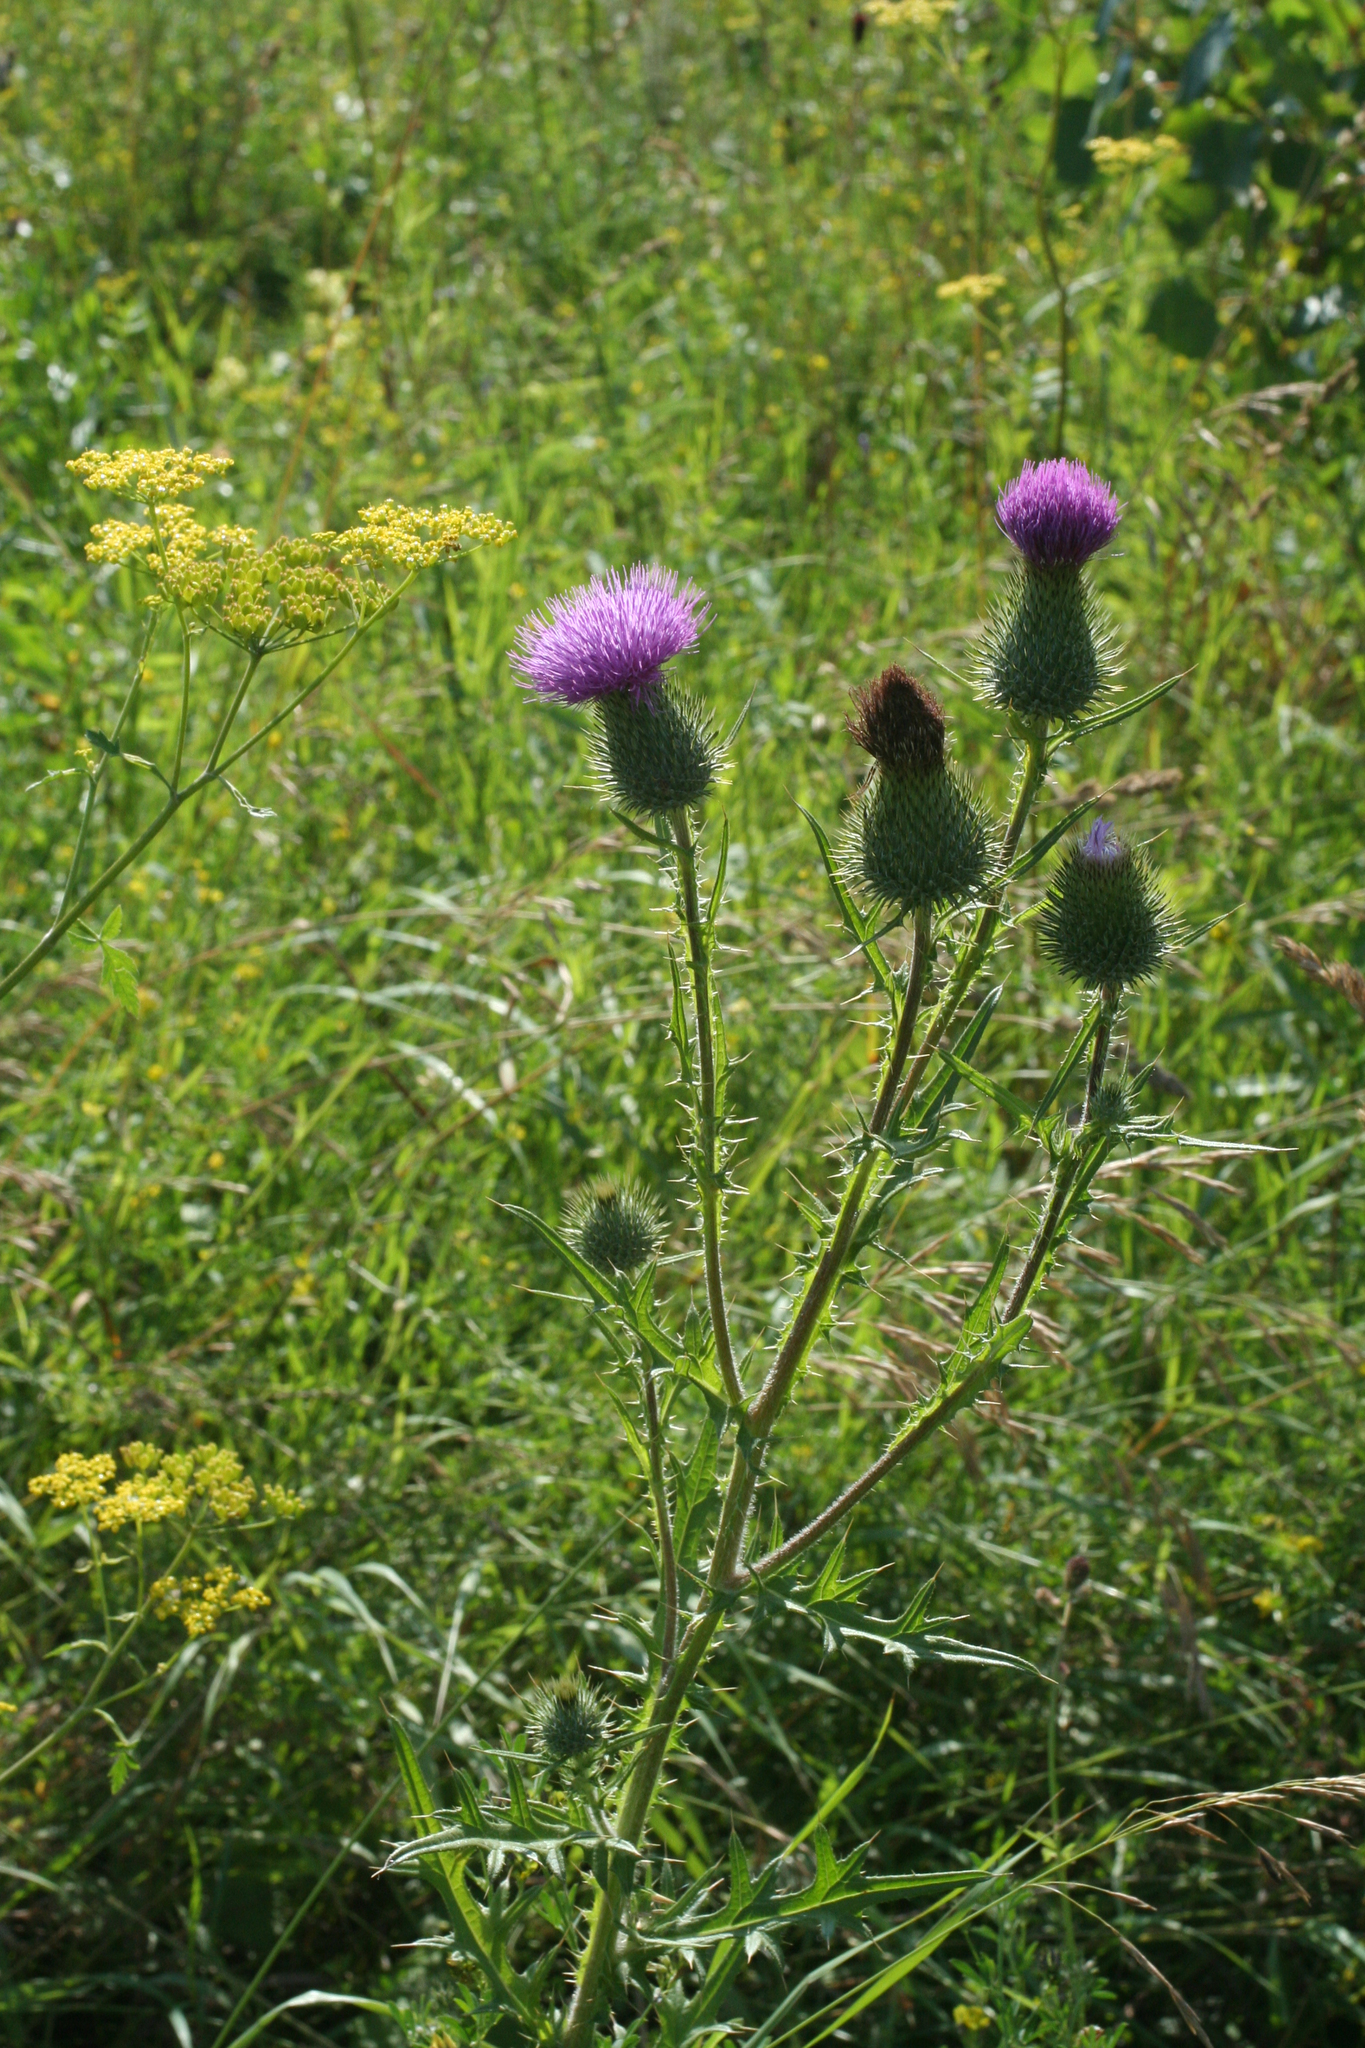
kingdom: Plantae
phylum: Tracheophyta
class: Magnoliopsida
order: Asterales
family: Asteraceae
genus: Cirsium
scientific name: Cirsium vulgare
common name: Bull thistle
